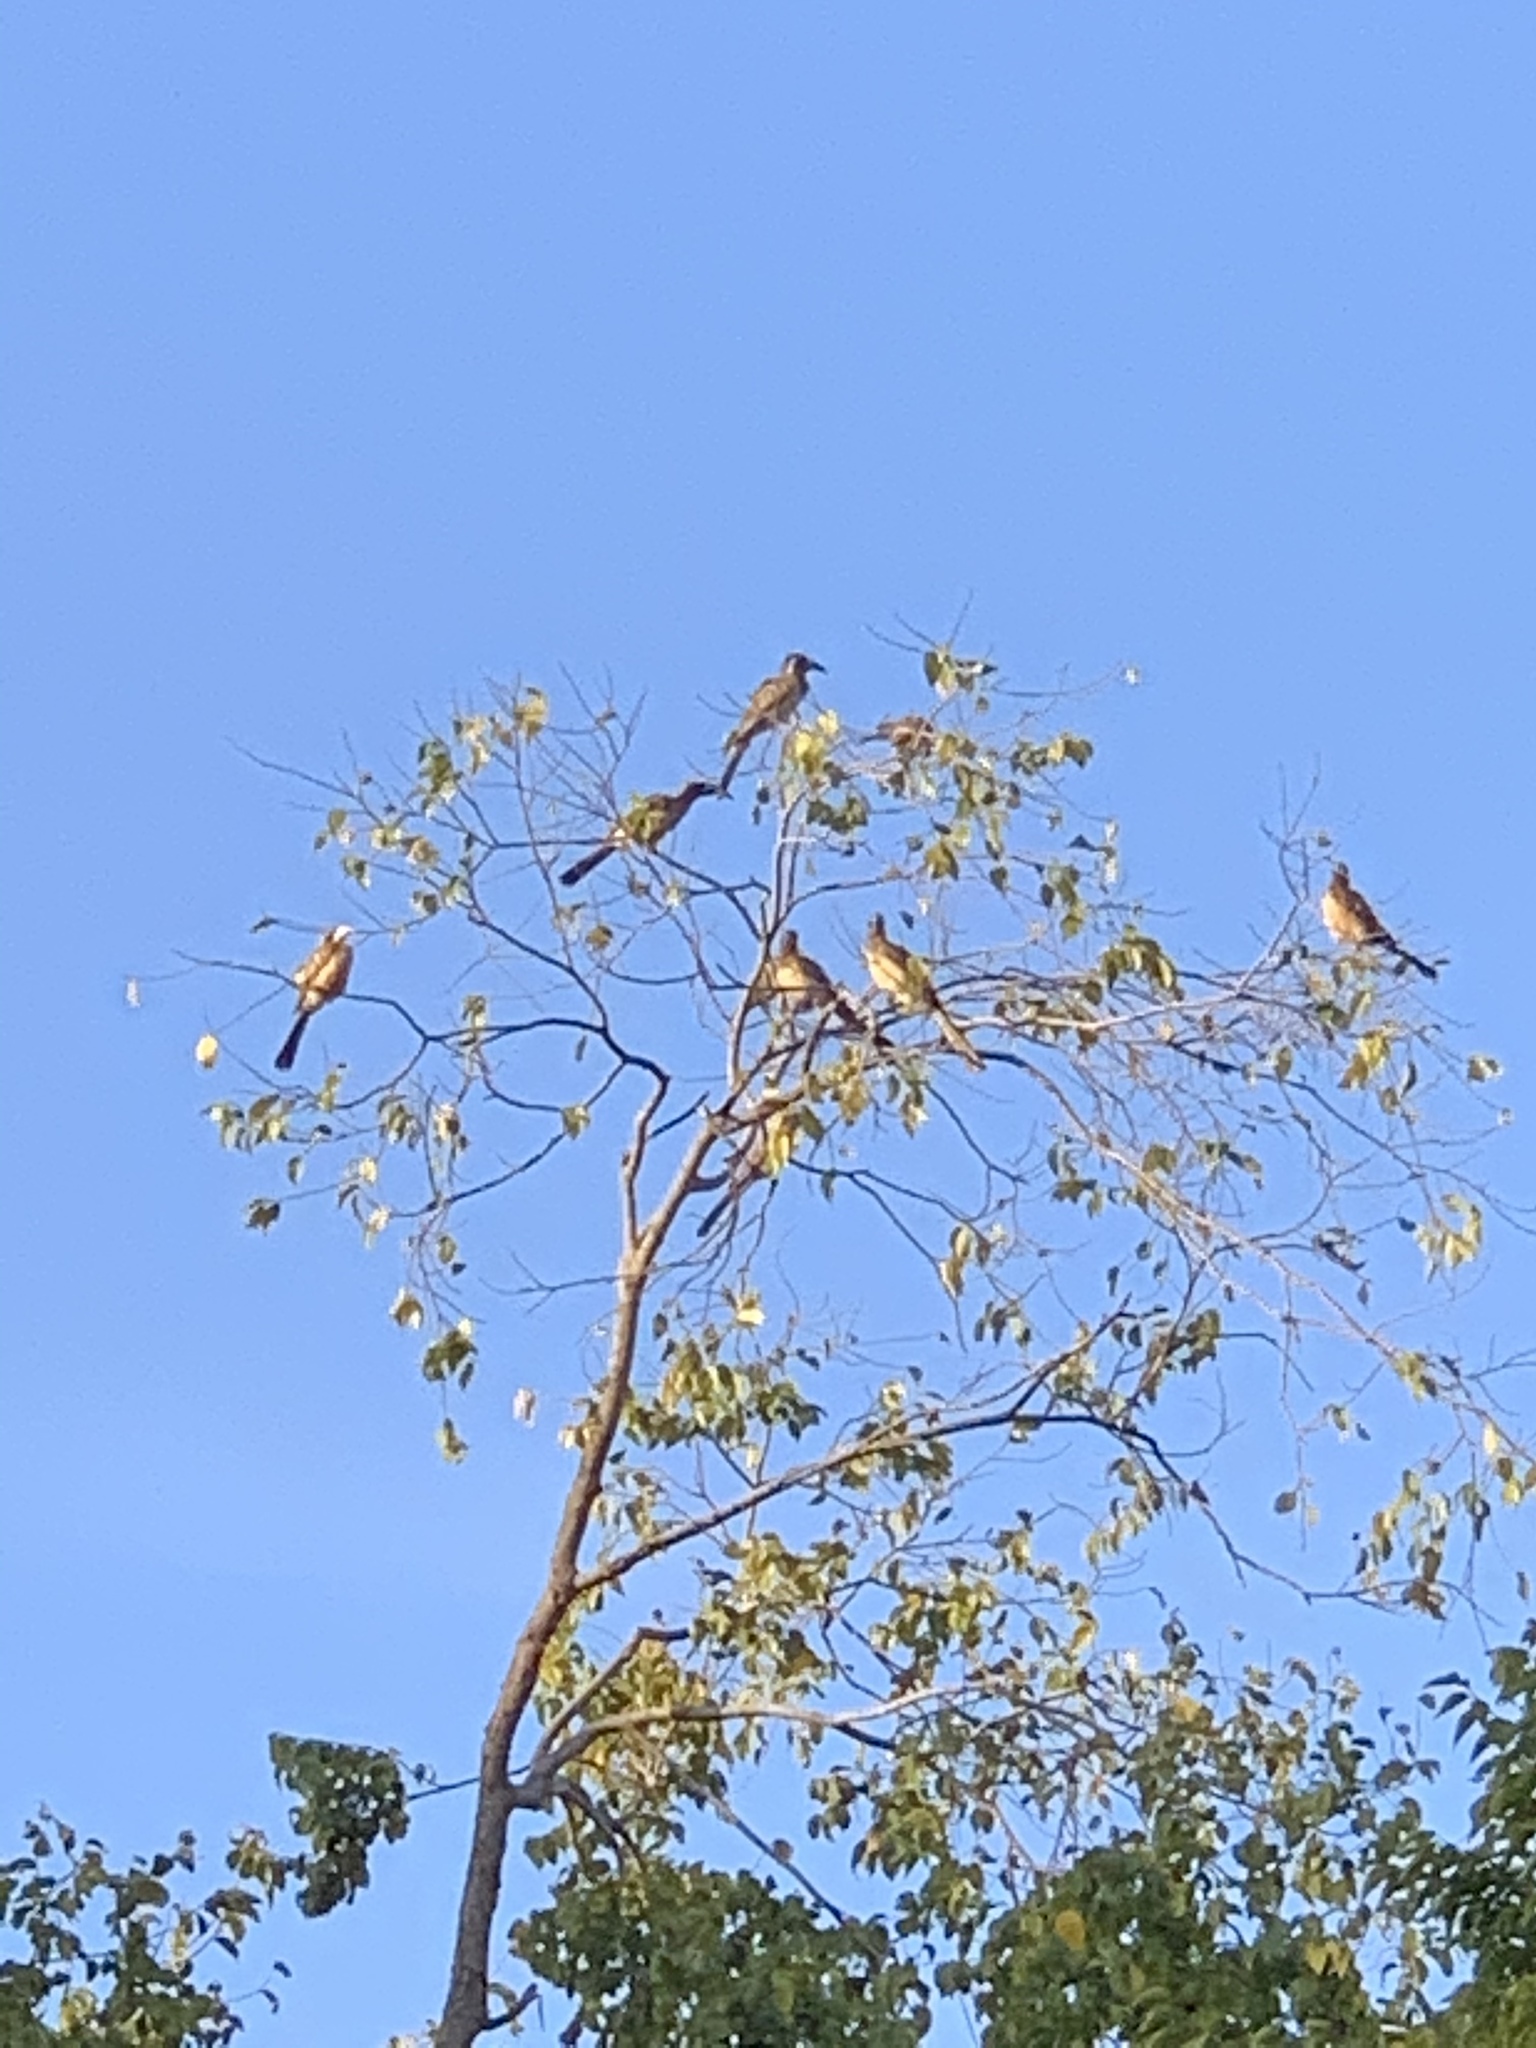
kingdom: Animalia
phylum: Chordata
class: Aves
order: Bucerotiformes
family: Bucerotidae
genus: Lophoceros
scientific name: Lophoceros nasutus
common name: African grey hornbill
